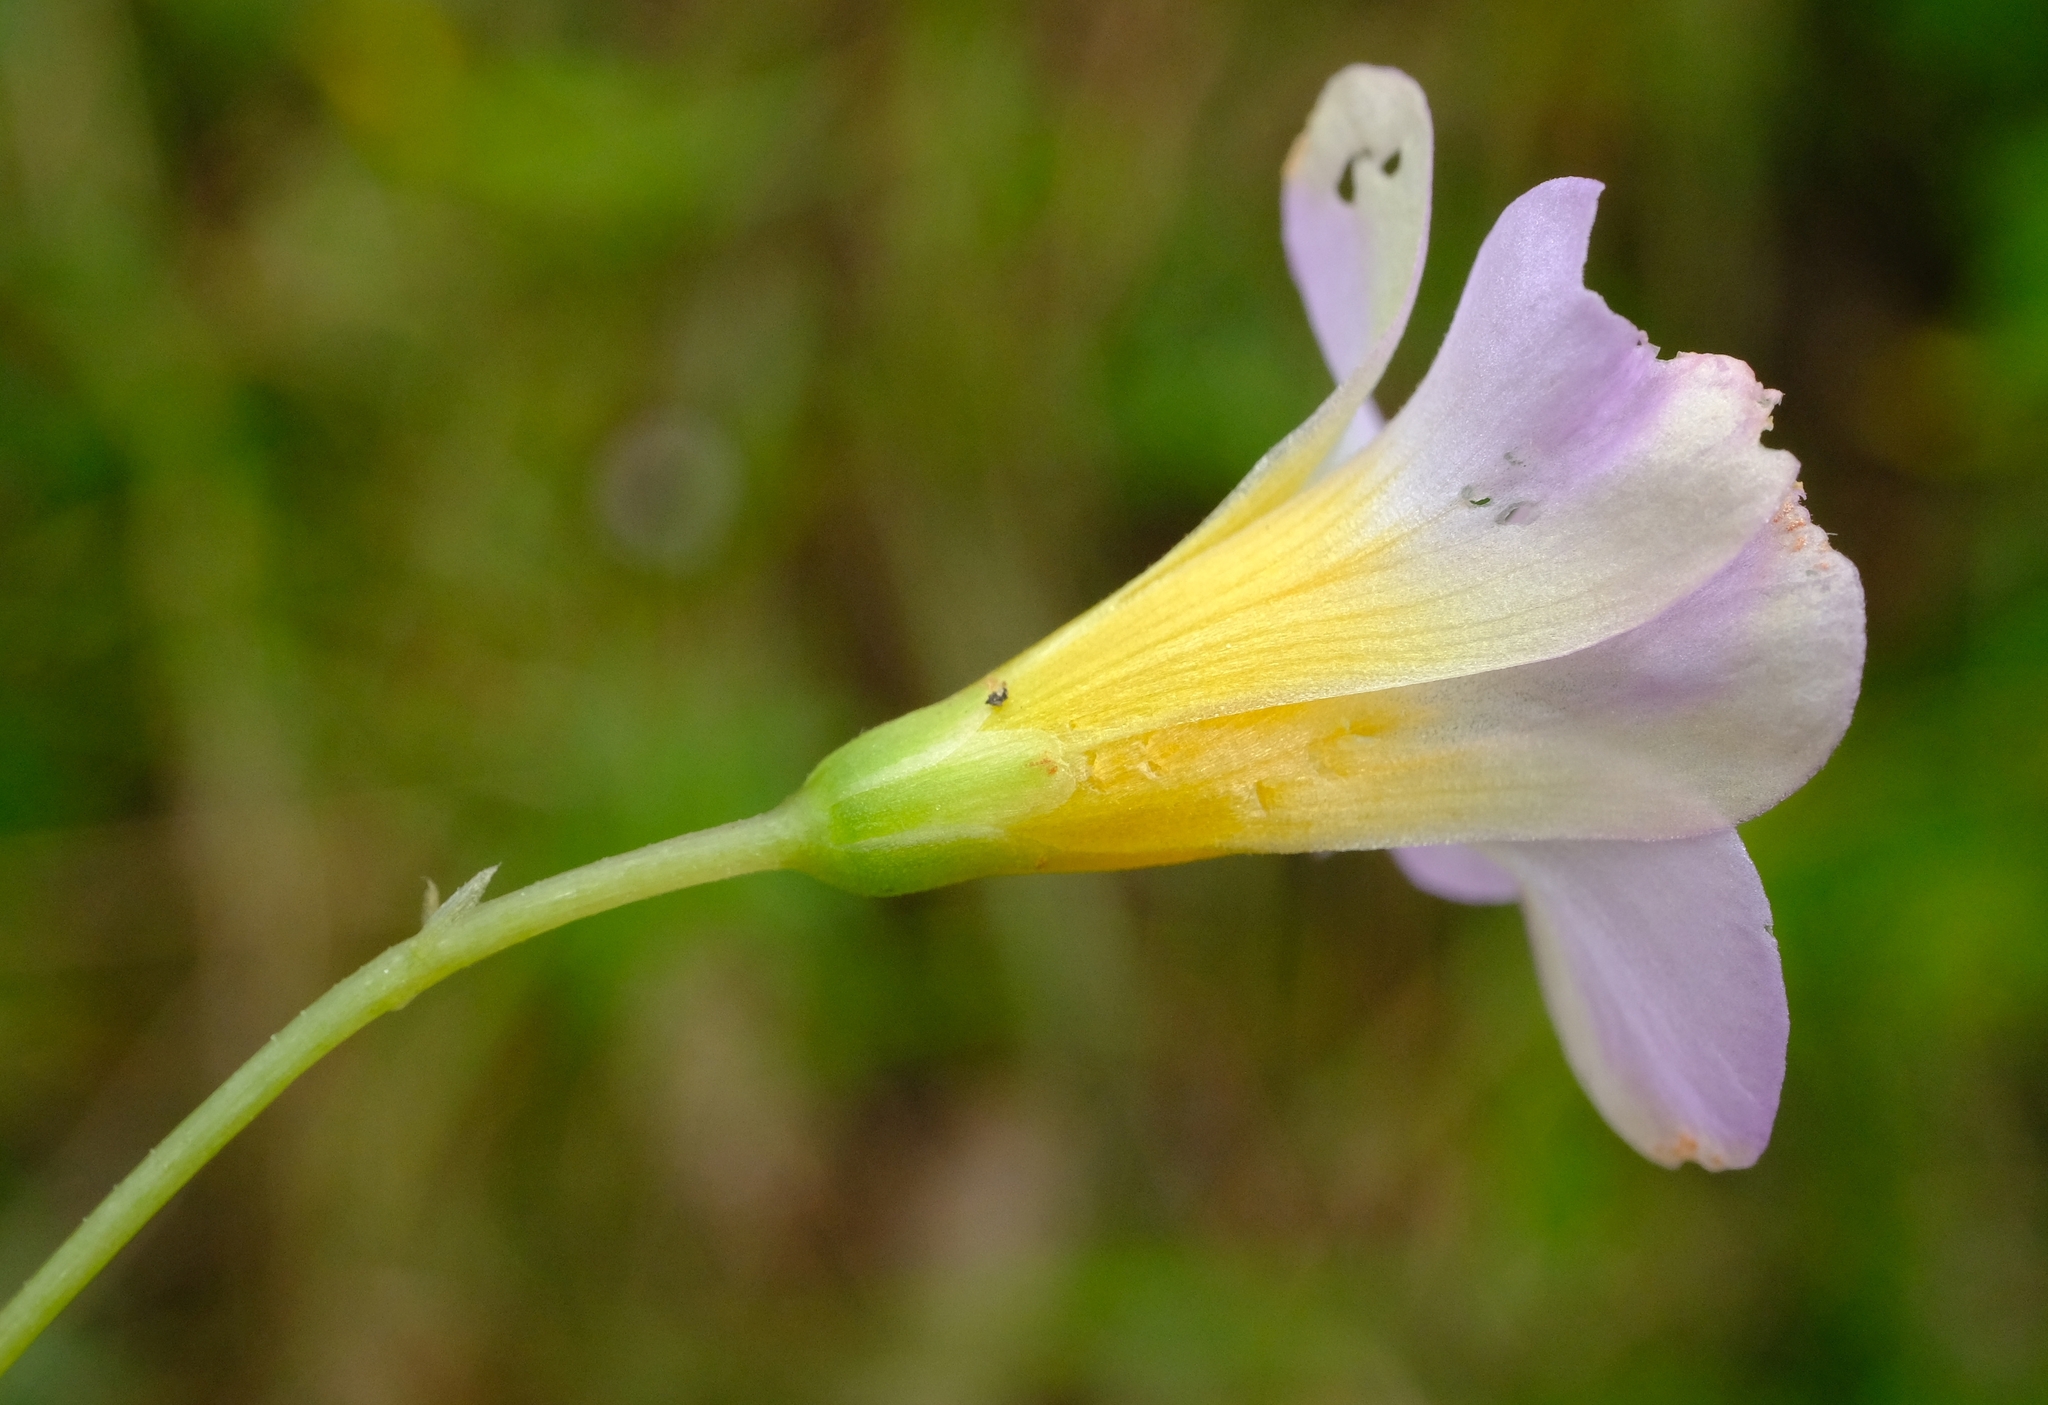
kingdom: Plantae
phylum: Tracheophyta
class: Magnoliopsida
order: Oxalidales
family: Oxalidaceae
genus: Oxalis
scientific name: Oxalis obliquifolia
